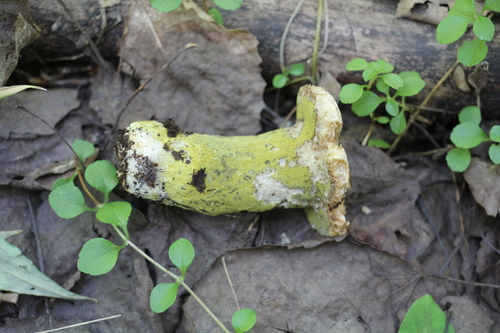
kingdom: Fungi
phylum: Ascomycota
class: Sordariomycetes
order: Hypocreales
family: Hypocreaceae
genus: Hypomyces
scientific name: Hypomyces luteovirens
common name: Yellow-green russula mold
